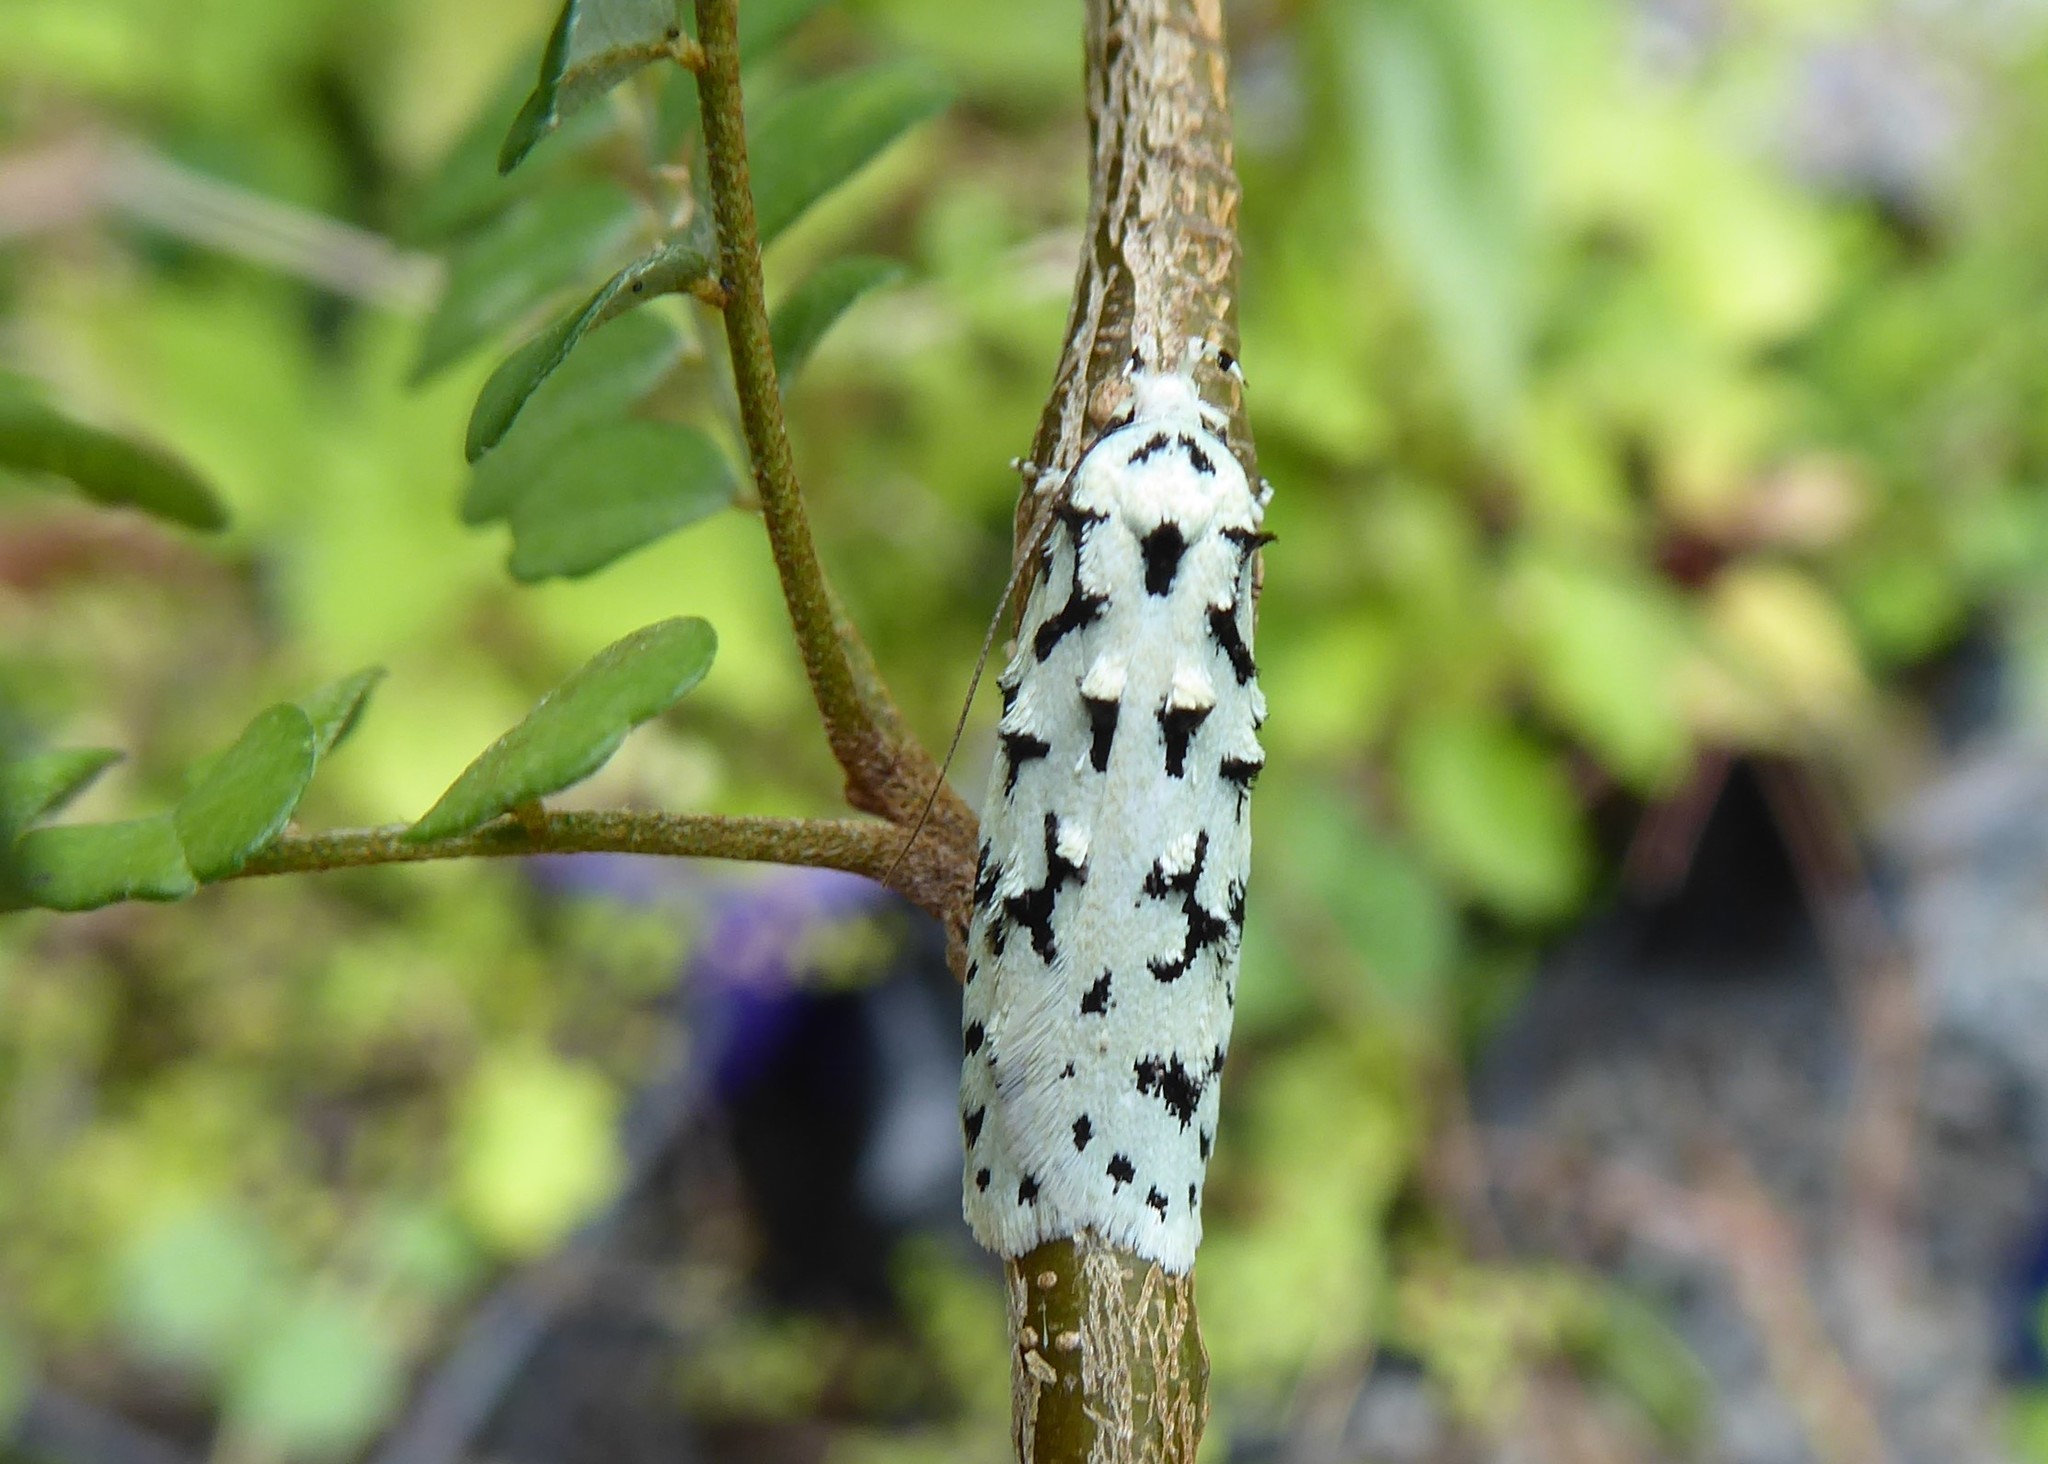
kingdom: Animalia
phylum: Arthropoda
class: Insecta
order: Lepidoptera
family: Oecophoridae
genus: Izatha
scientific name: Izatha huttoni
